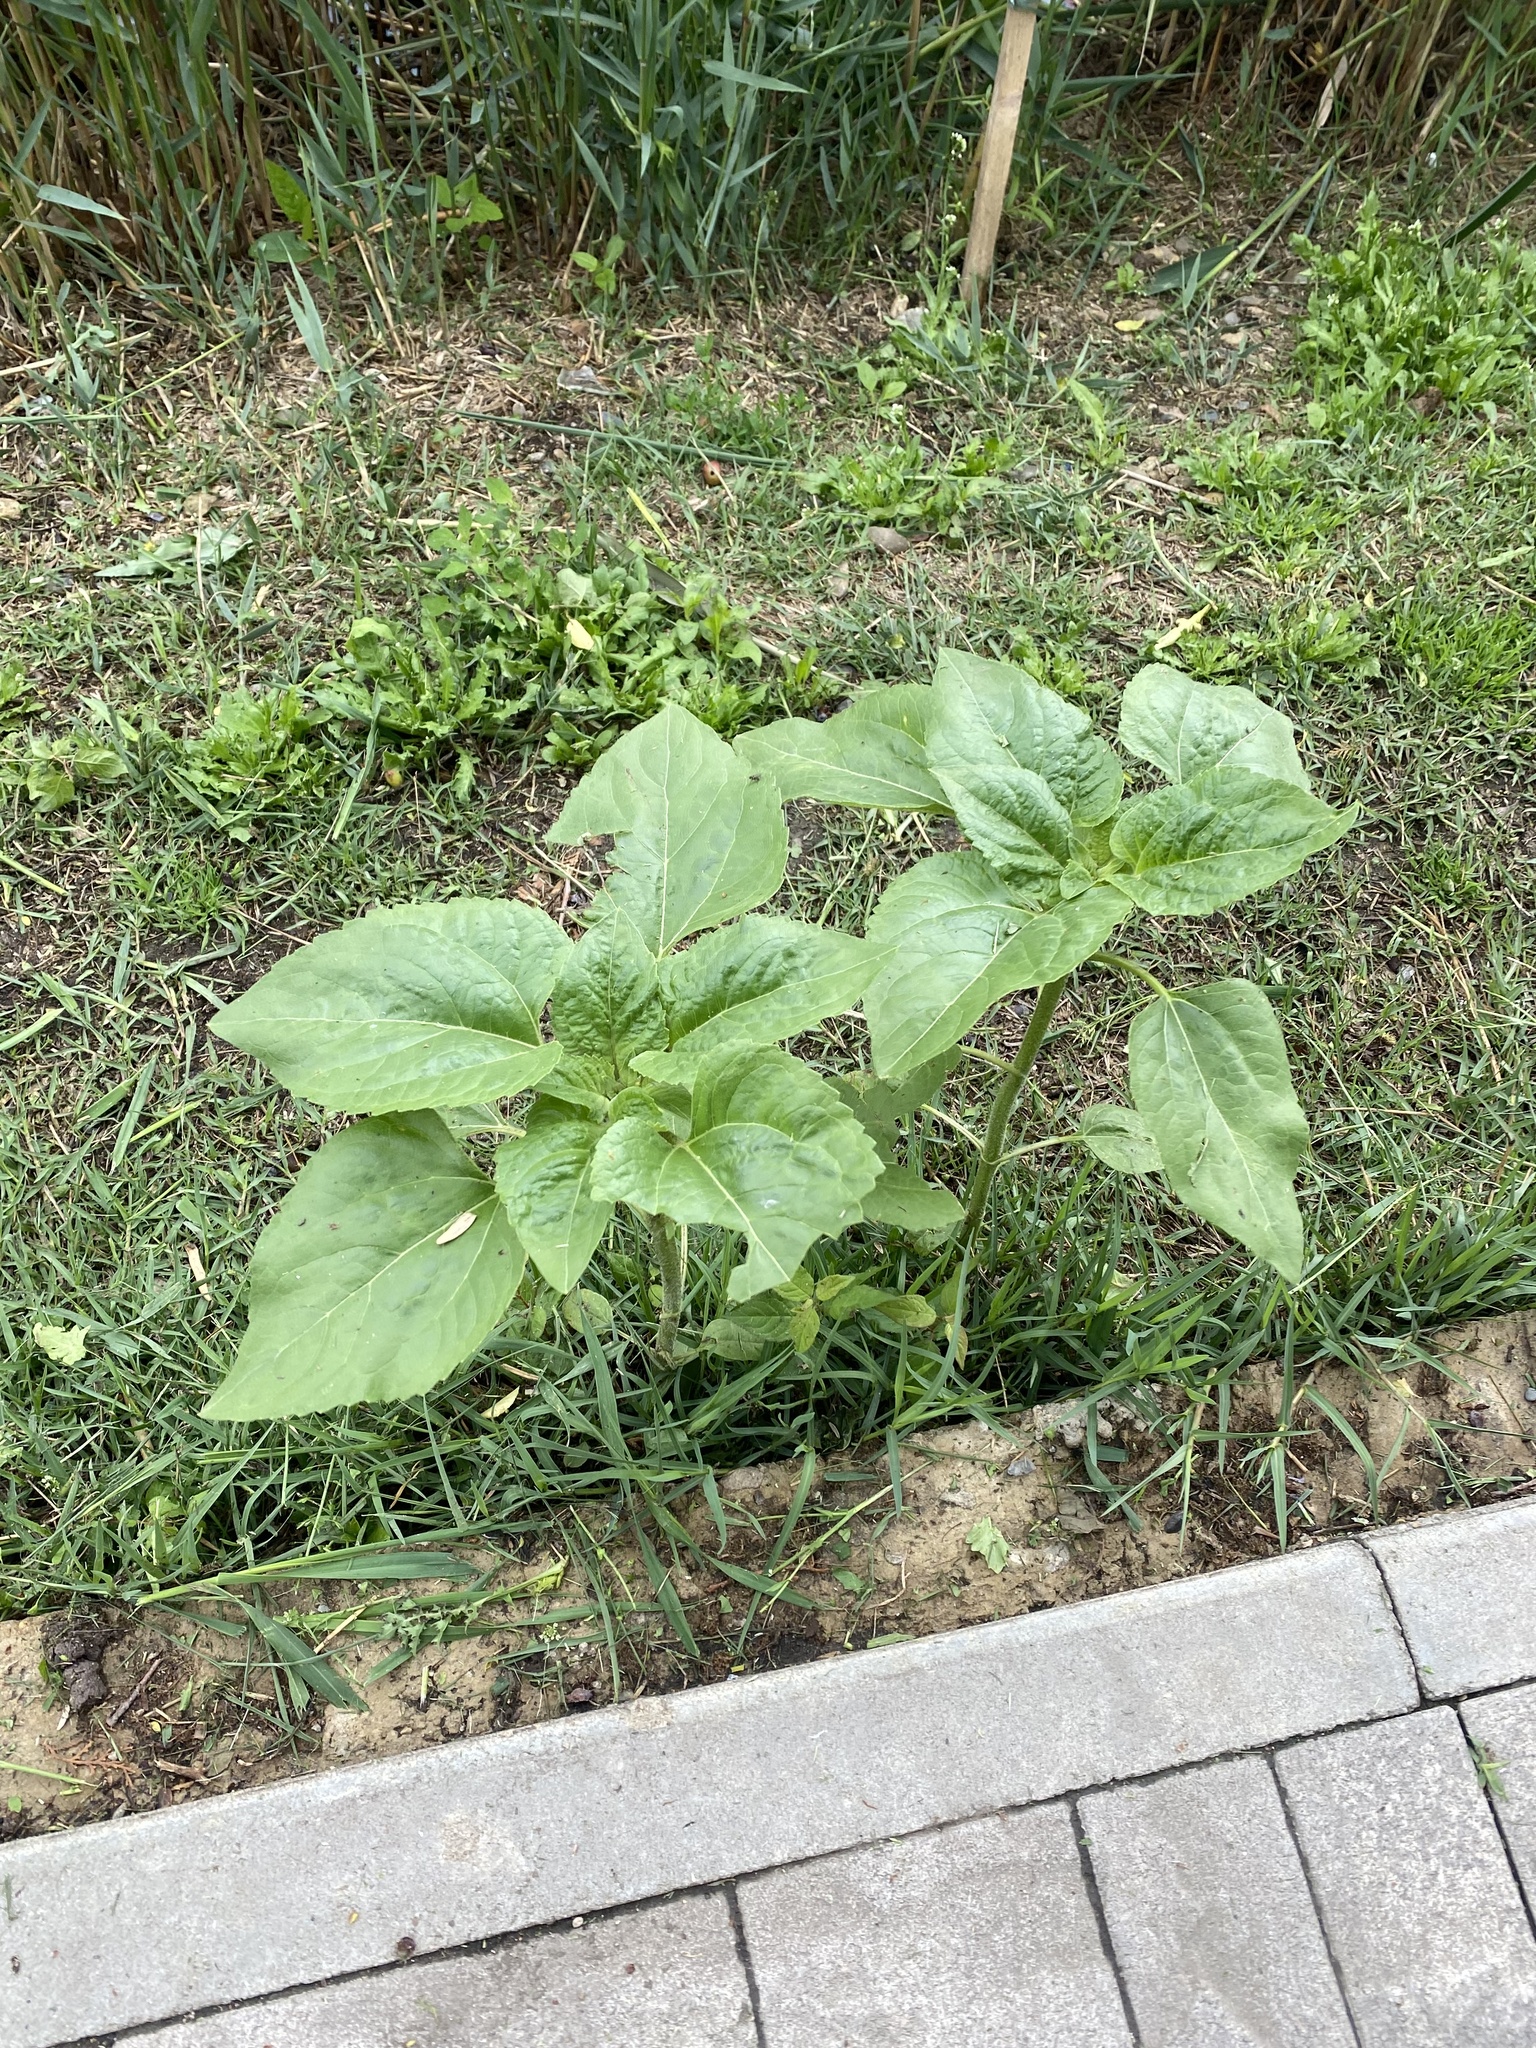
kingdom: Plantae
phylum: Tracheophyta
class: Magnoliopsida
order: Asterales
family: Asteraceae
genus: Helianthus
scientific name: Helianthus annuus
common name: Sunflower
